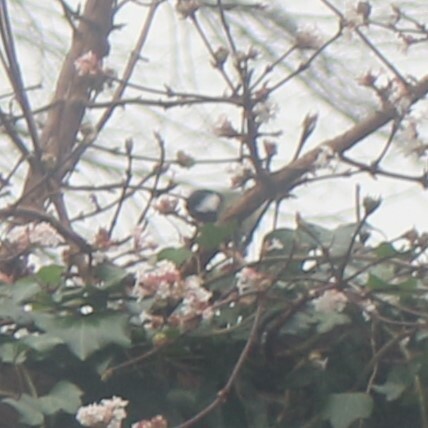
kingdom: Animalia
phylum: Chordata
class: Aves
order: Passeriformes
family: Paridae
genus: Parus
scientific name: Parus major
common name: Great tit
